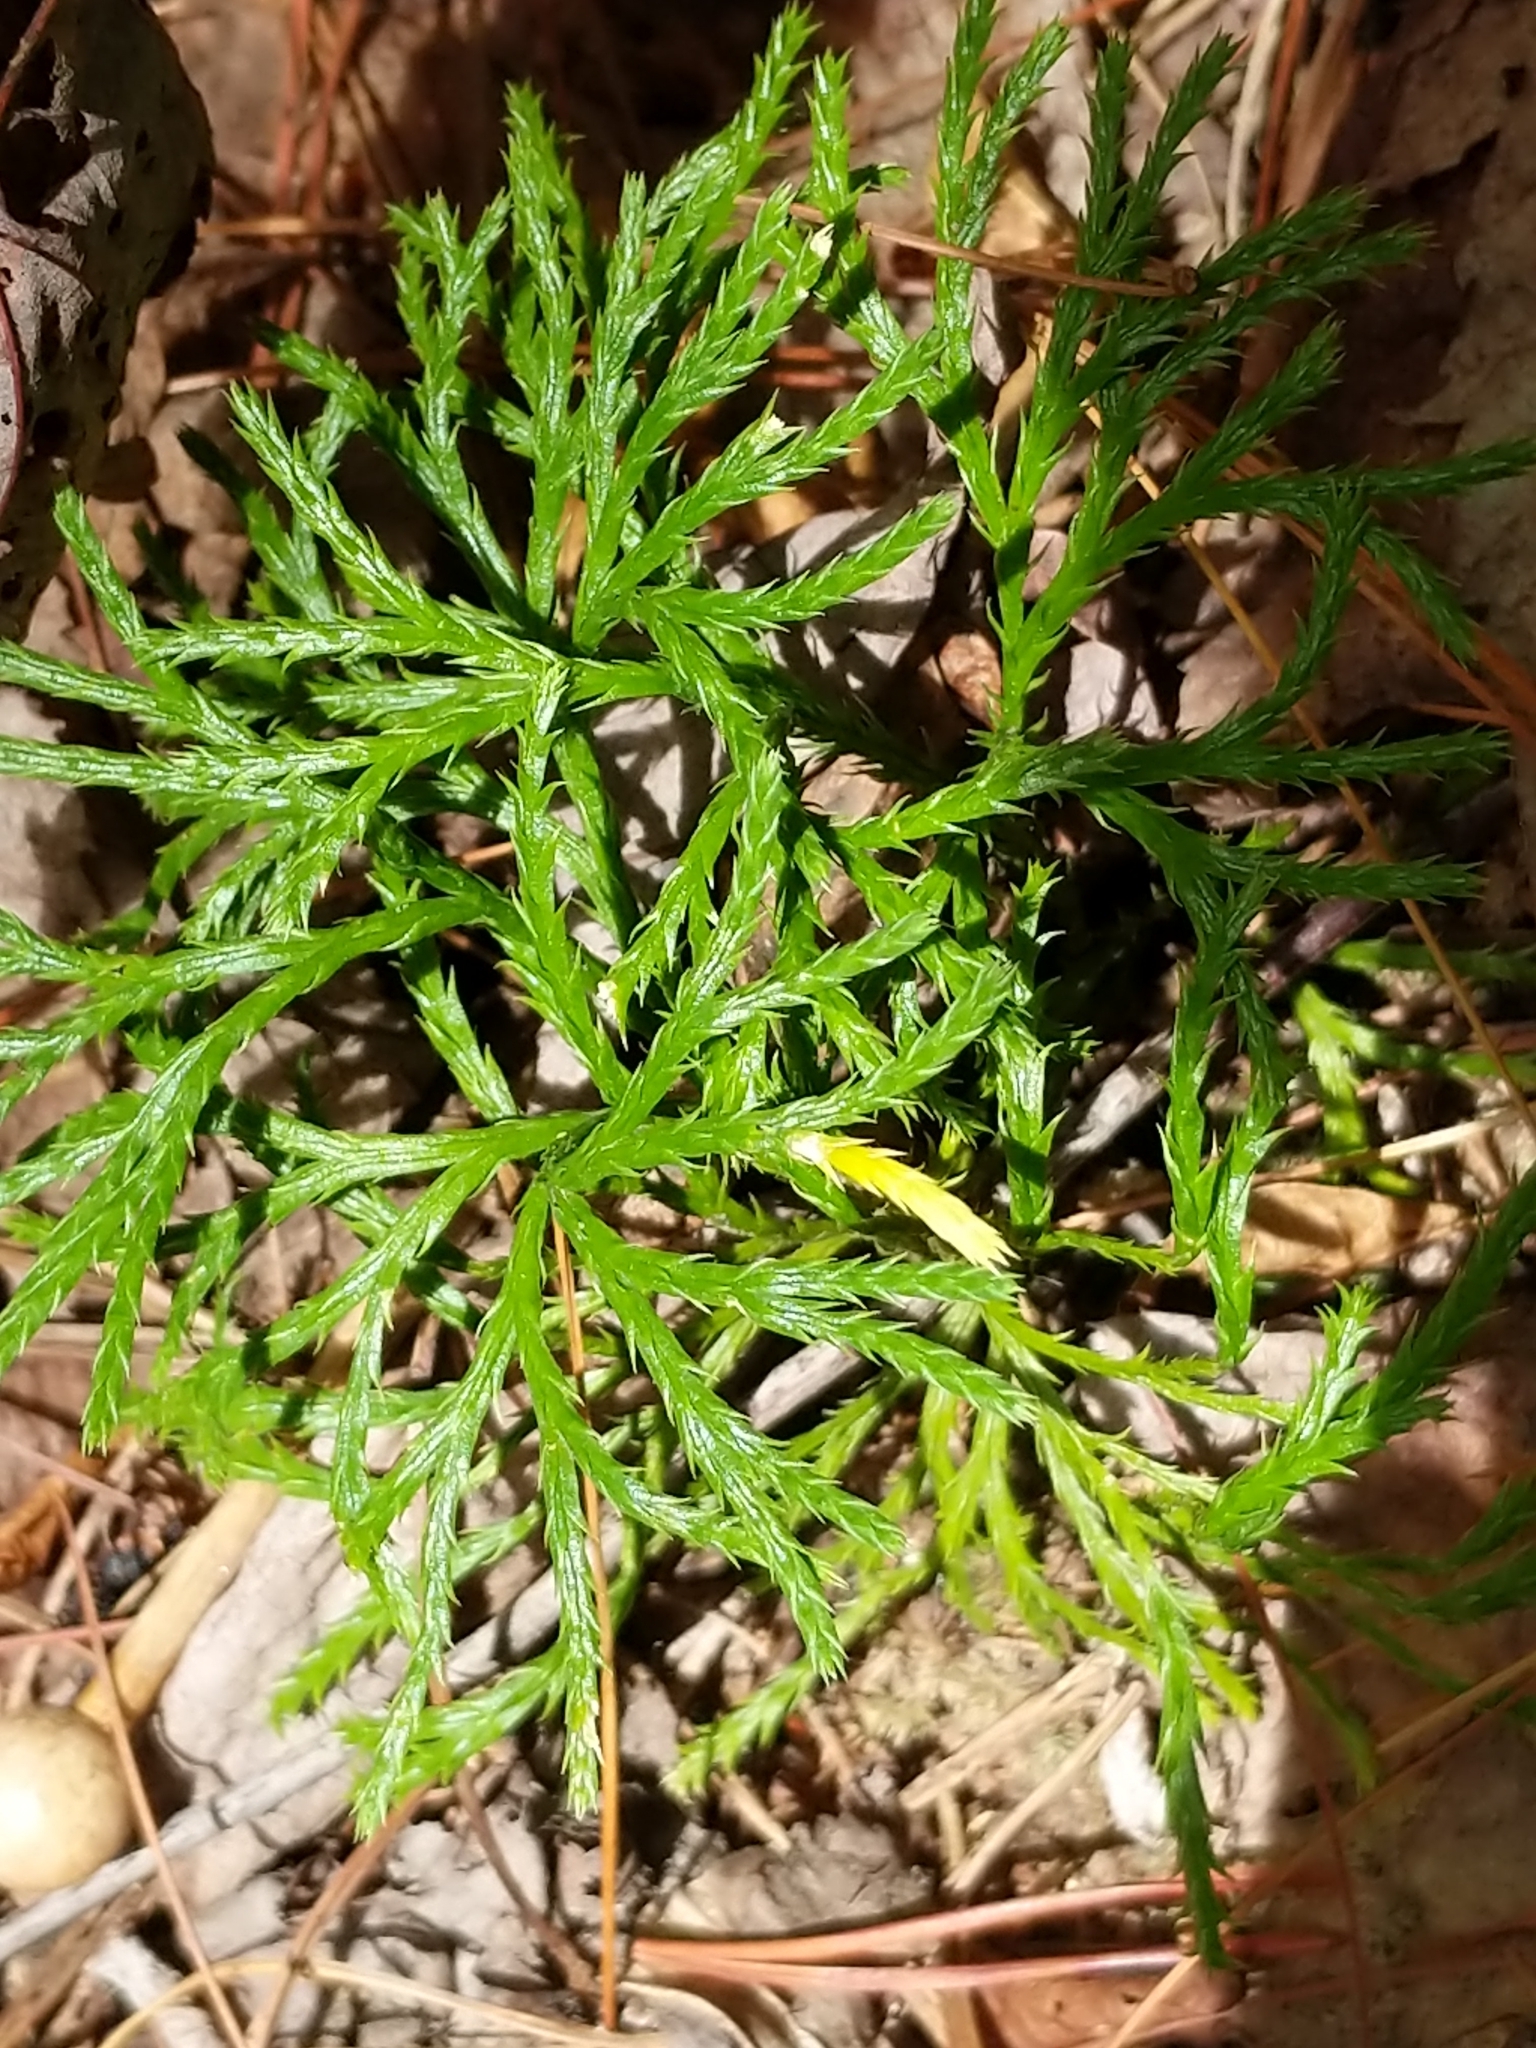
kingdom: Plantae
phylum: Tracheophyta
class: Lycopodiopsida
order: Lycopodiales
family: Lycopodiaceae
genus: Diphasiastrum
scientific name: Diphasiastrum digitatum
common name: Southern running-pine
